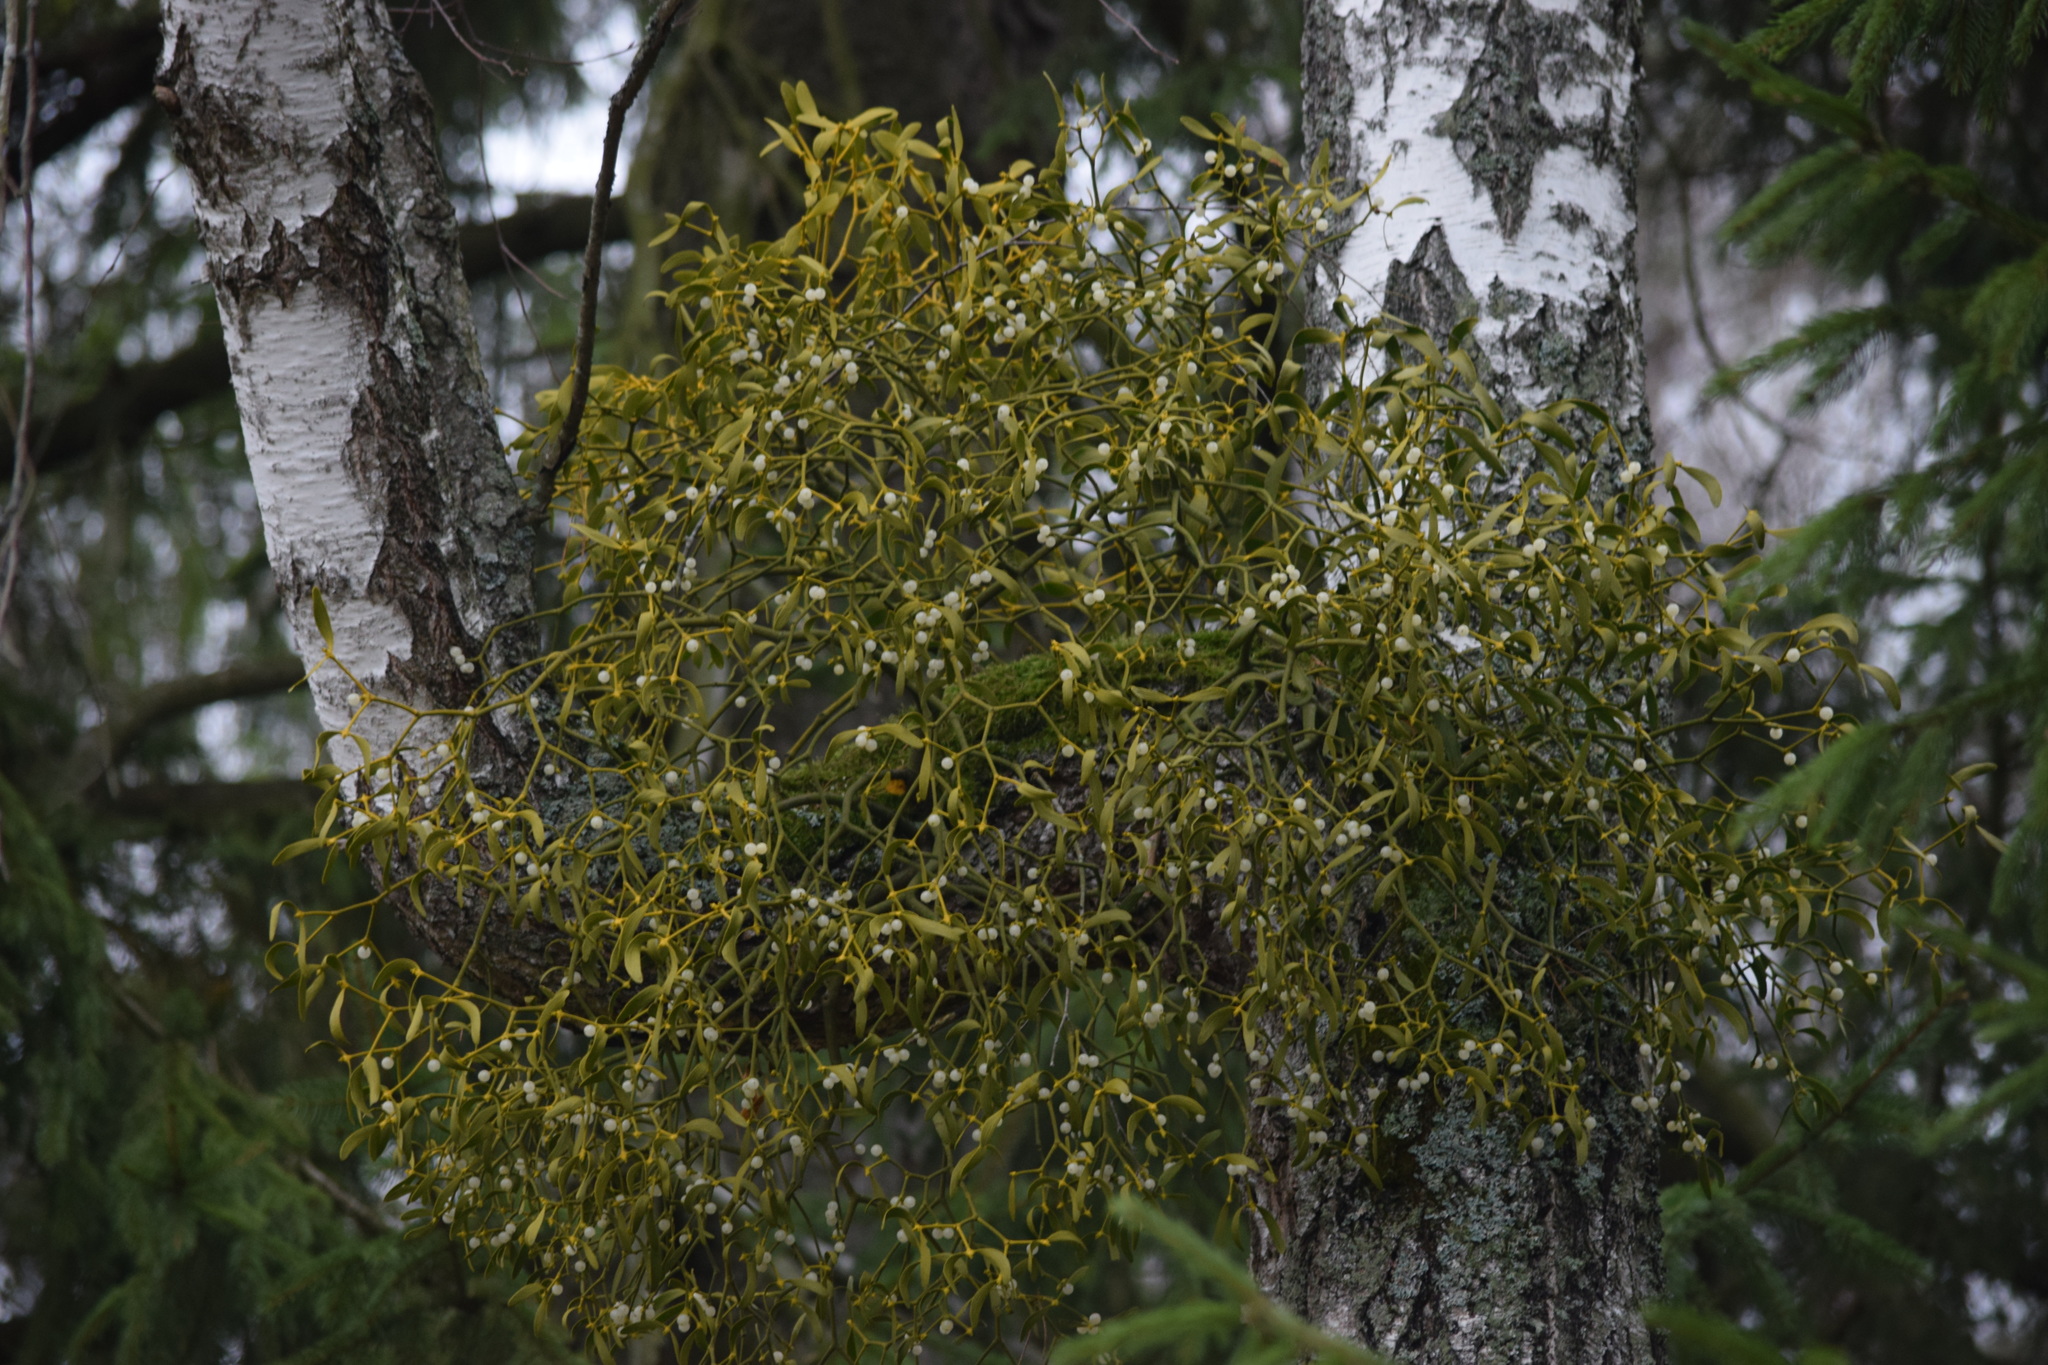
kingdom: Plantae
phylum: Tracheophyta
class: Magnoliopsida
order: Santalales
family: Viscaceae
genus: Viscum
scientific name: Viscum album
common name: Mistletoe
